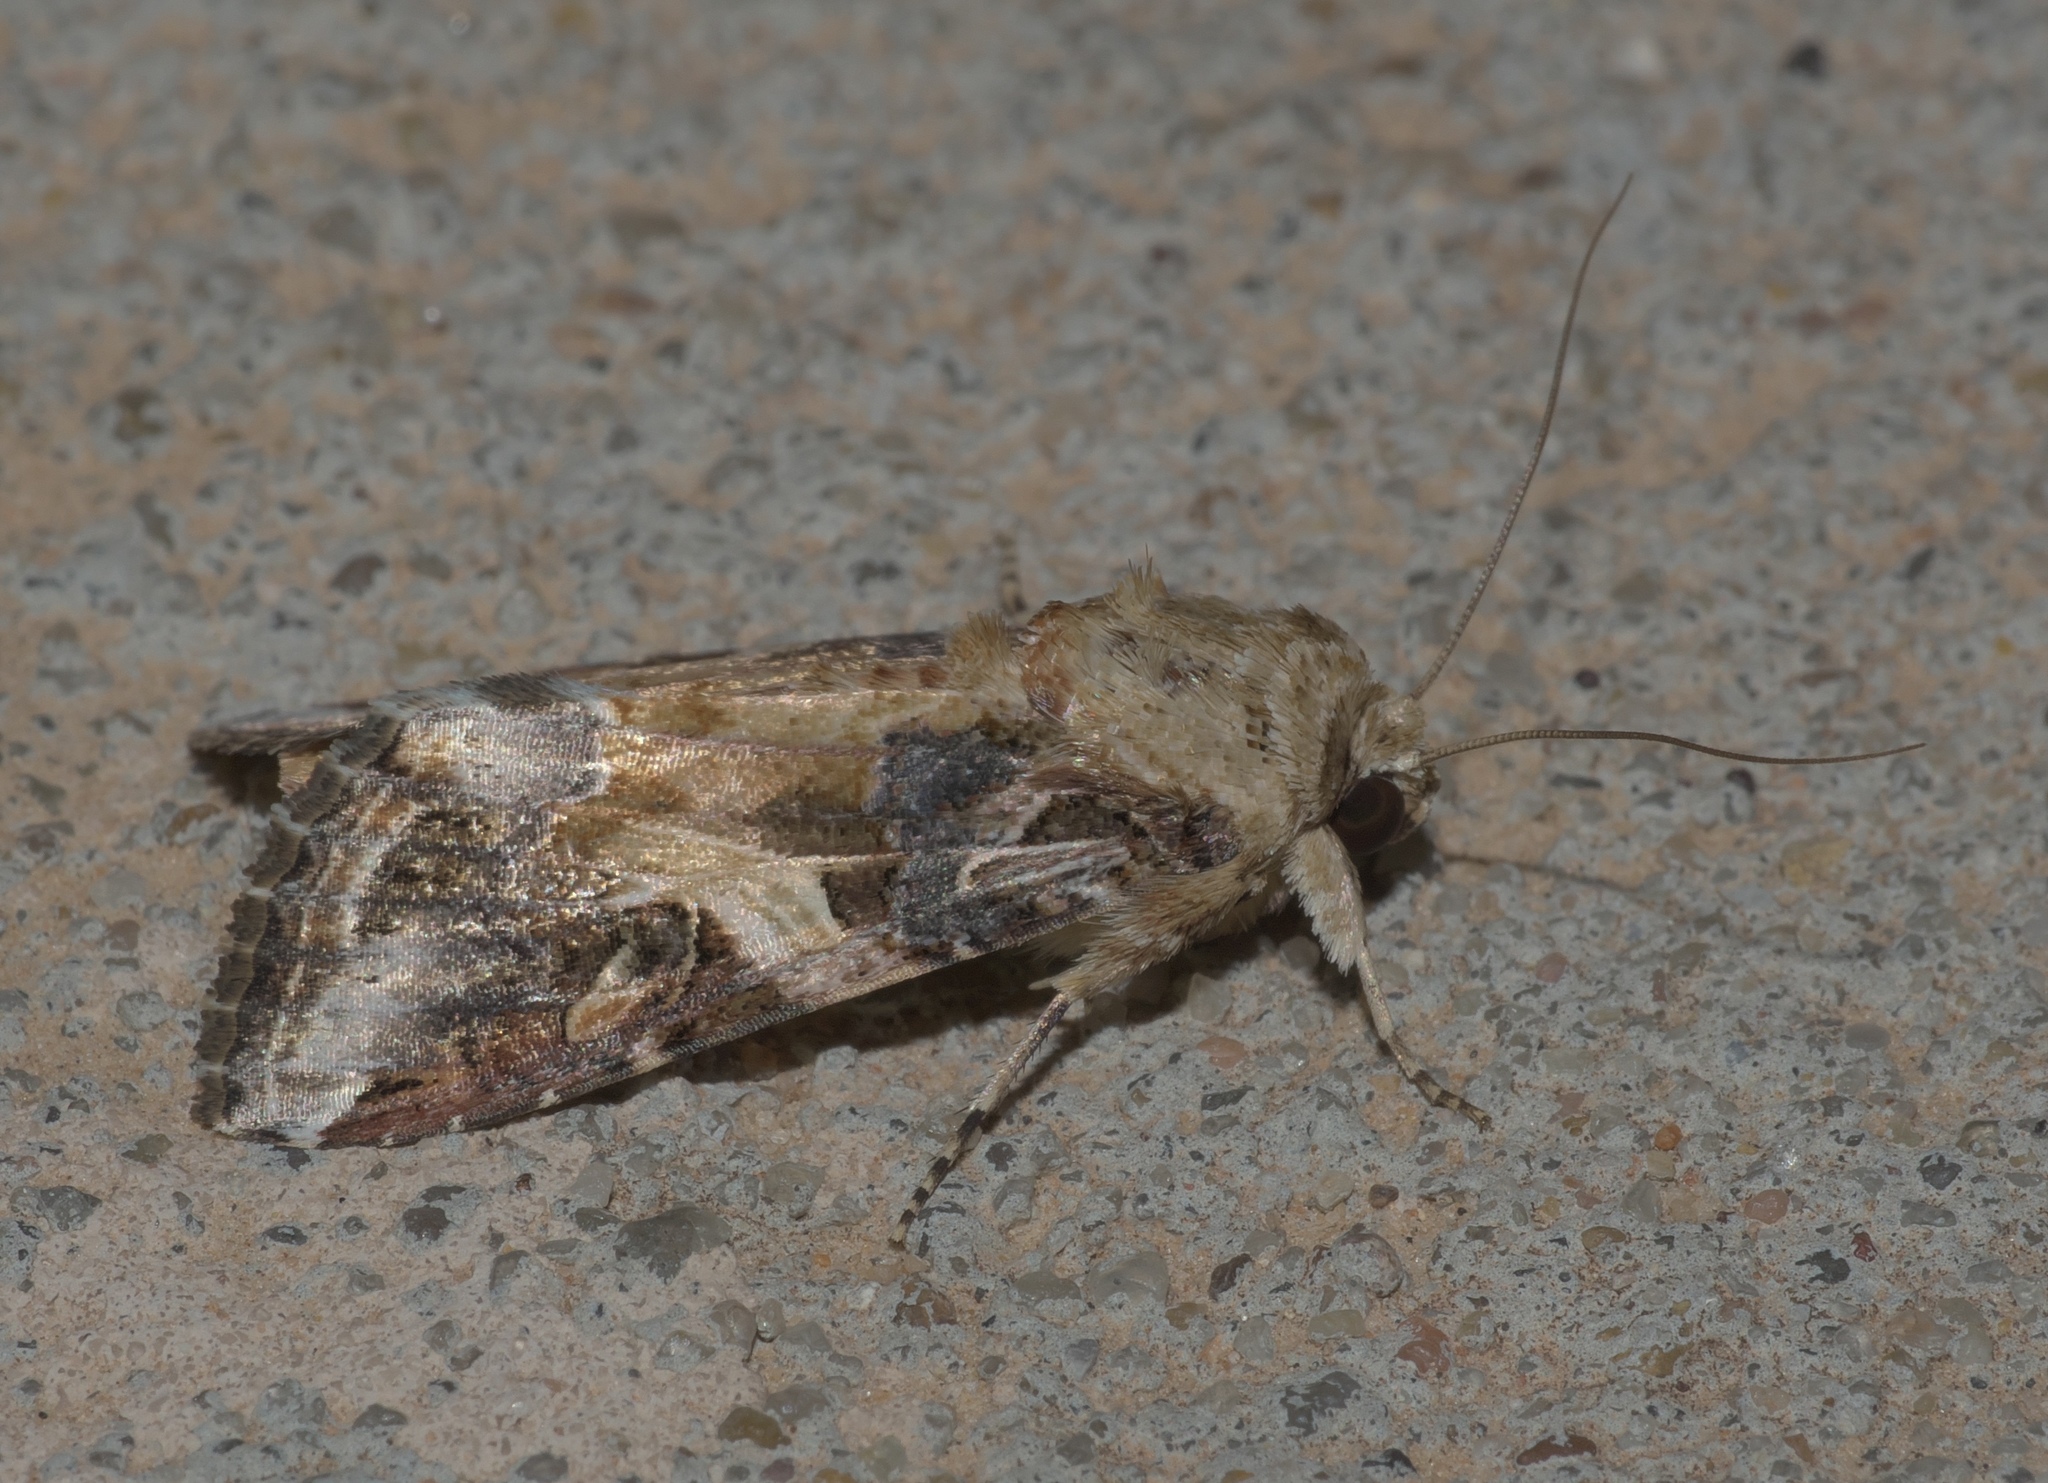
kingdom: Animalia
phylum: Arthropoda
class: Insecta
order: Lepidoptera
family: Noctuidae
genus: Spodoptera
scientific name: Spodoptera ornithogalli
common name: Yellow-striped armyworm
